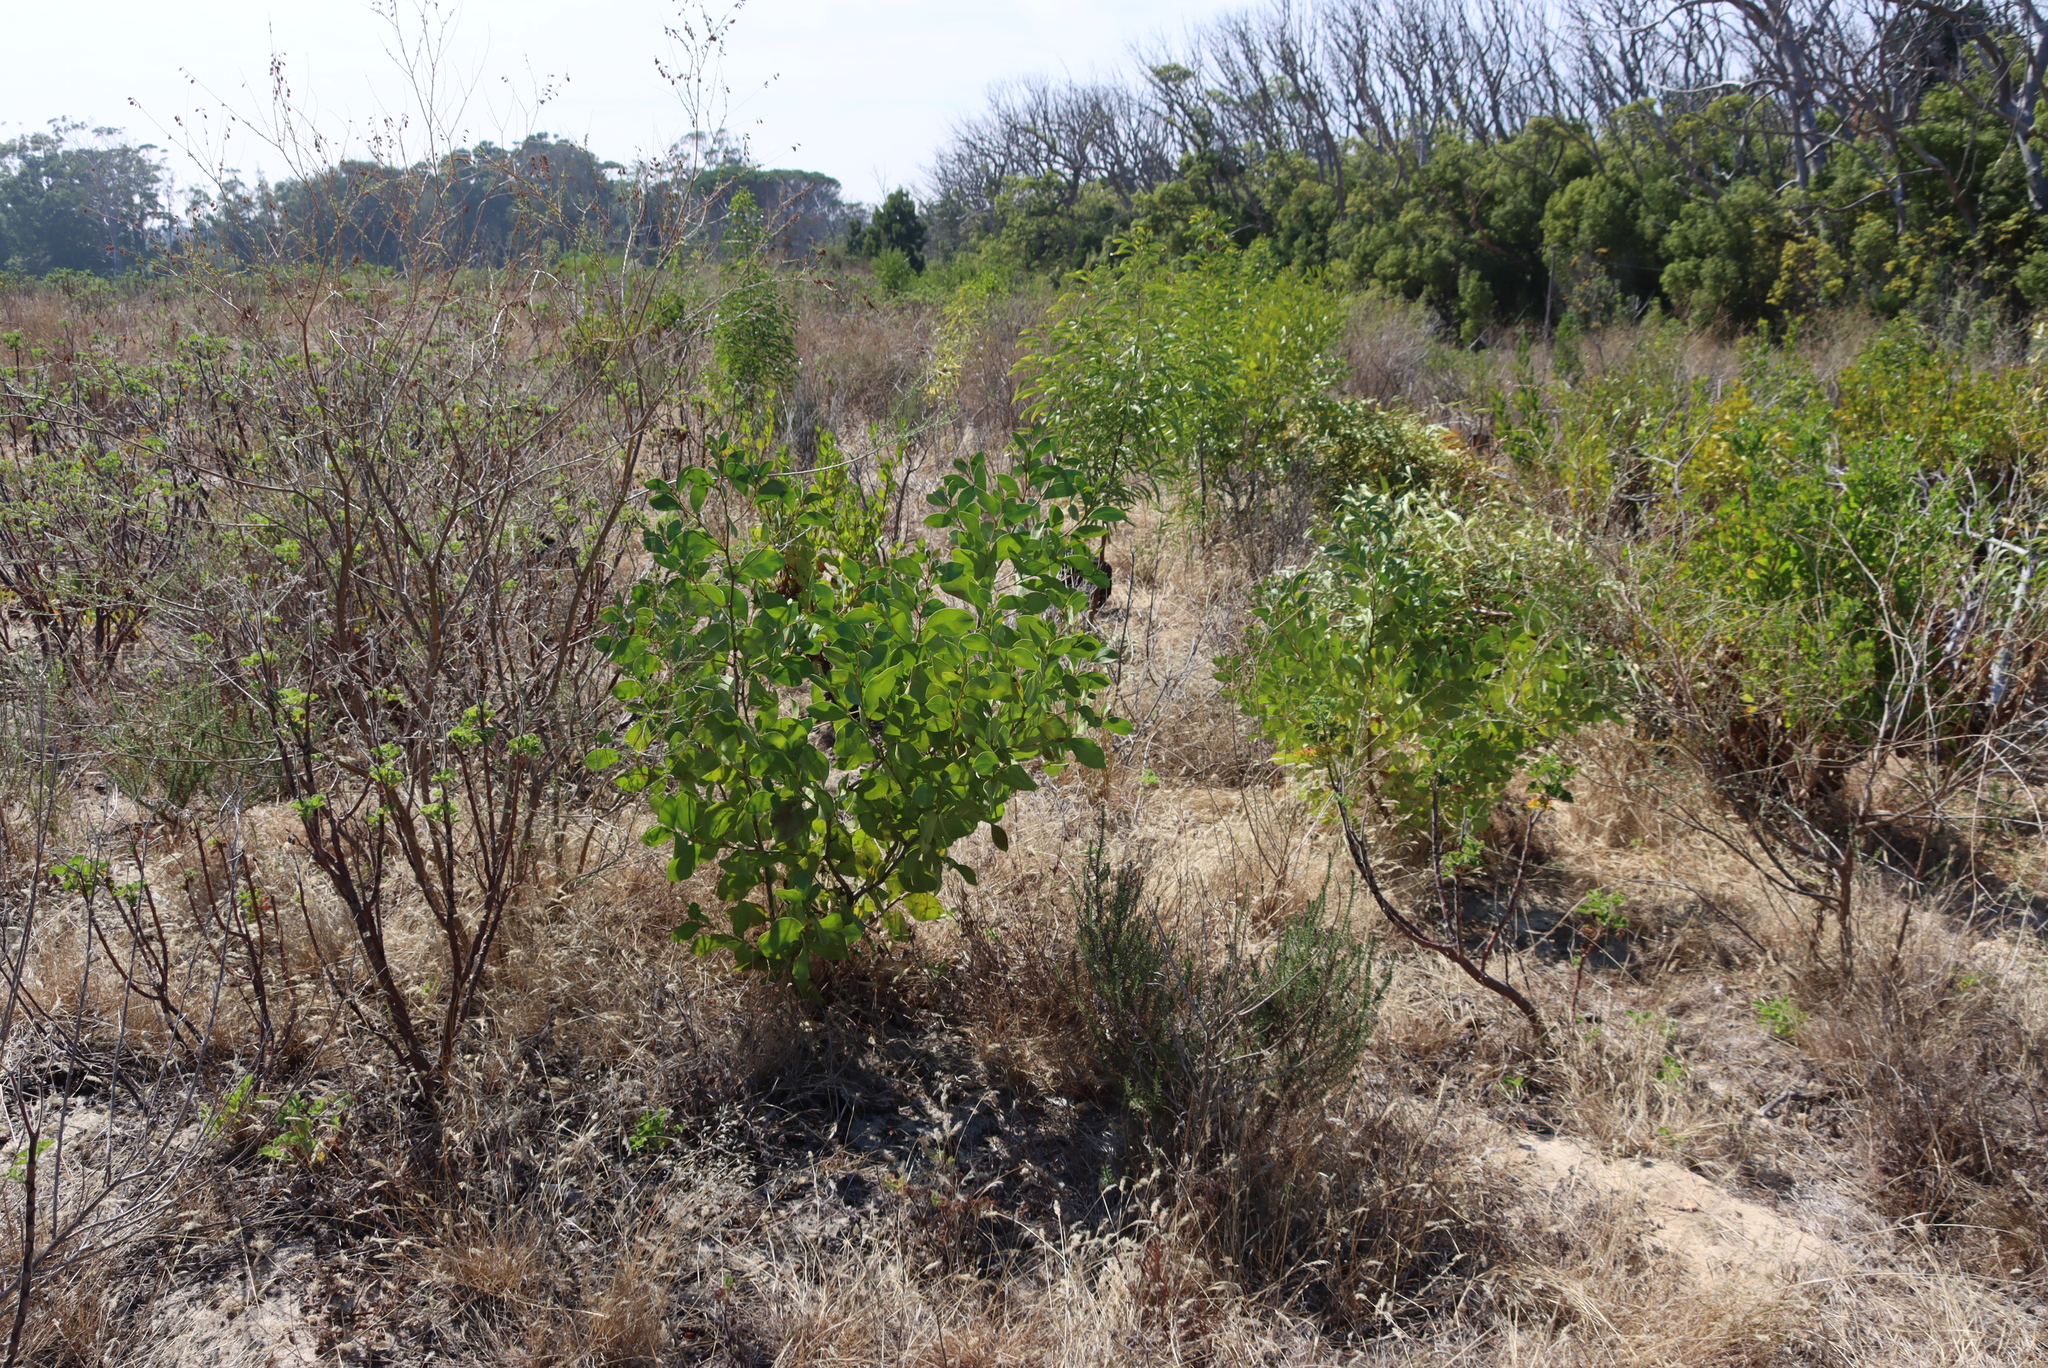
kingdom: Plantae
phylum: Tracheophyta
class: Magnoliopsida
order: Fabales
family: Fabaceae
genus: Acacia
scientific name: Acacia pycnantha
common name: Golden wattle
